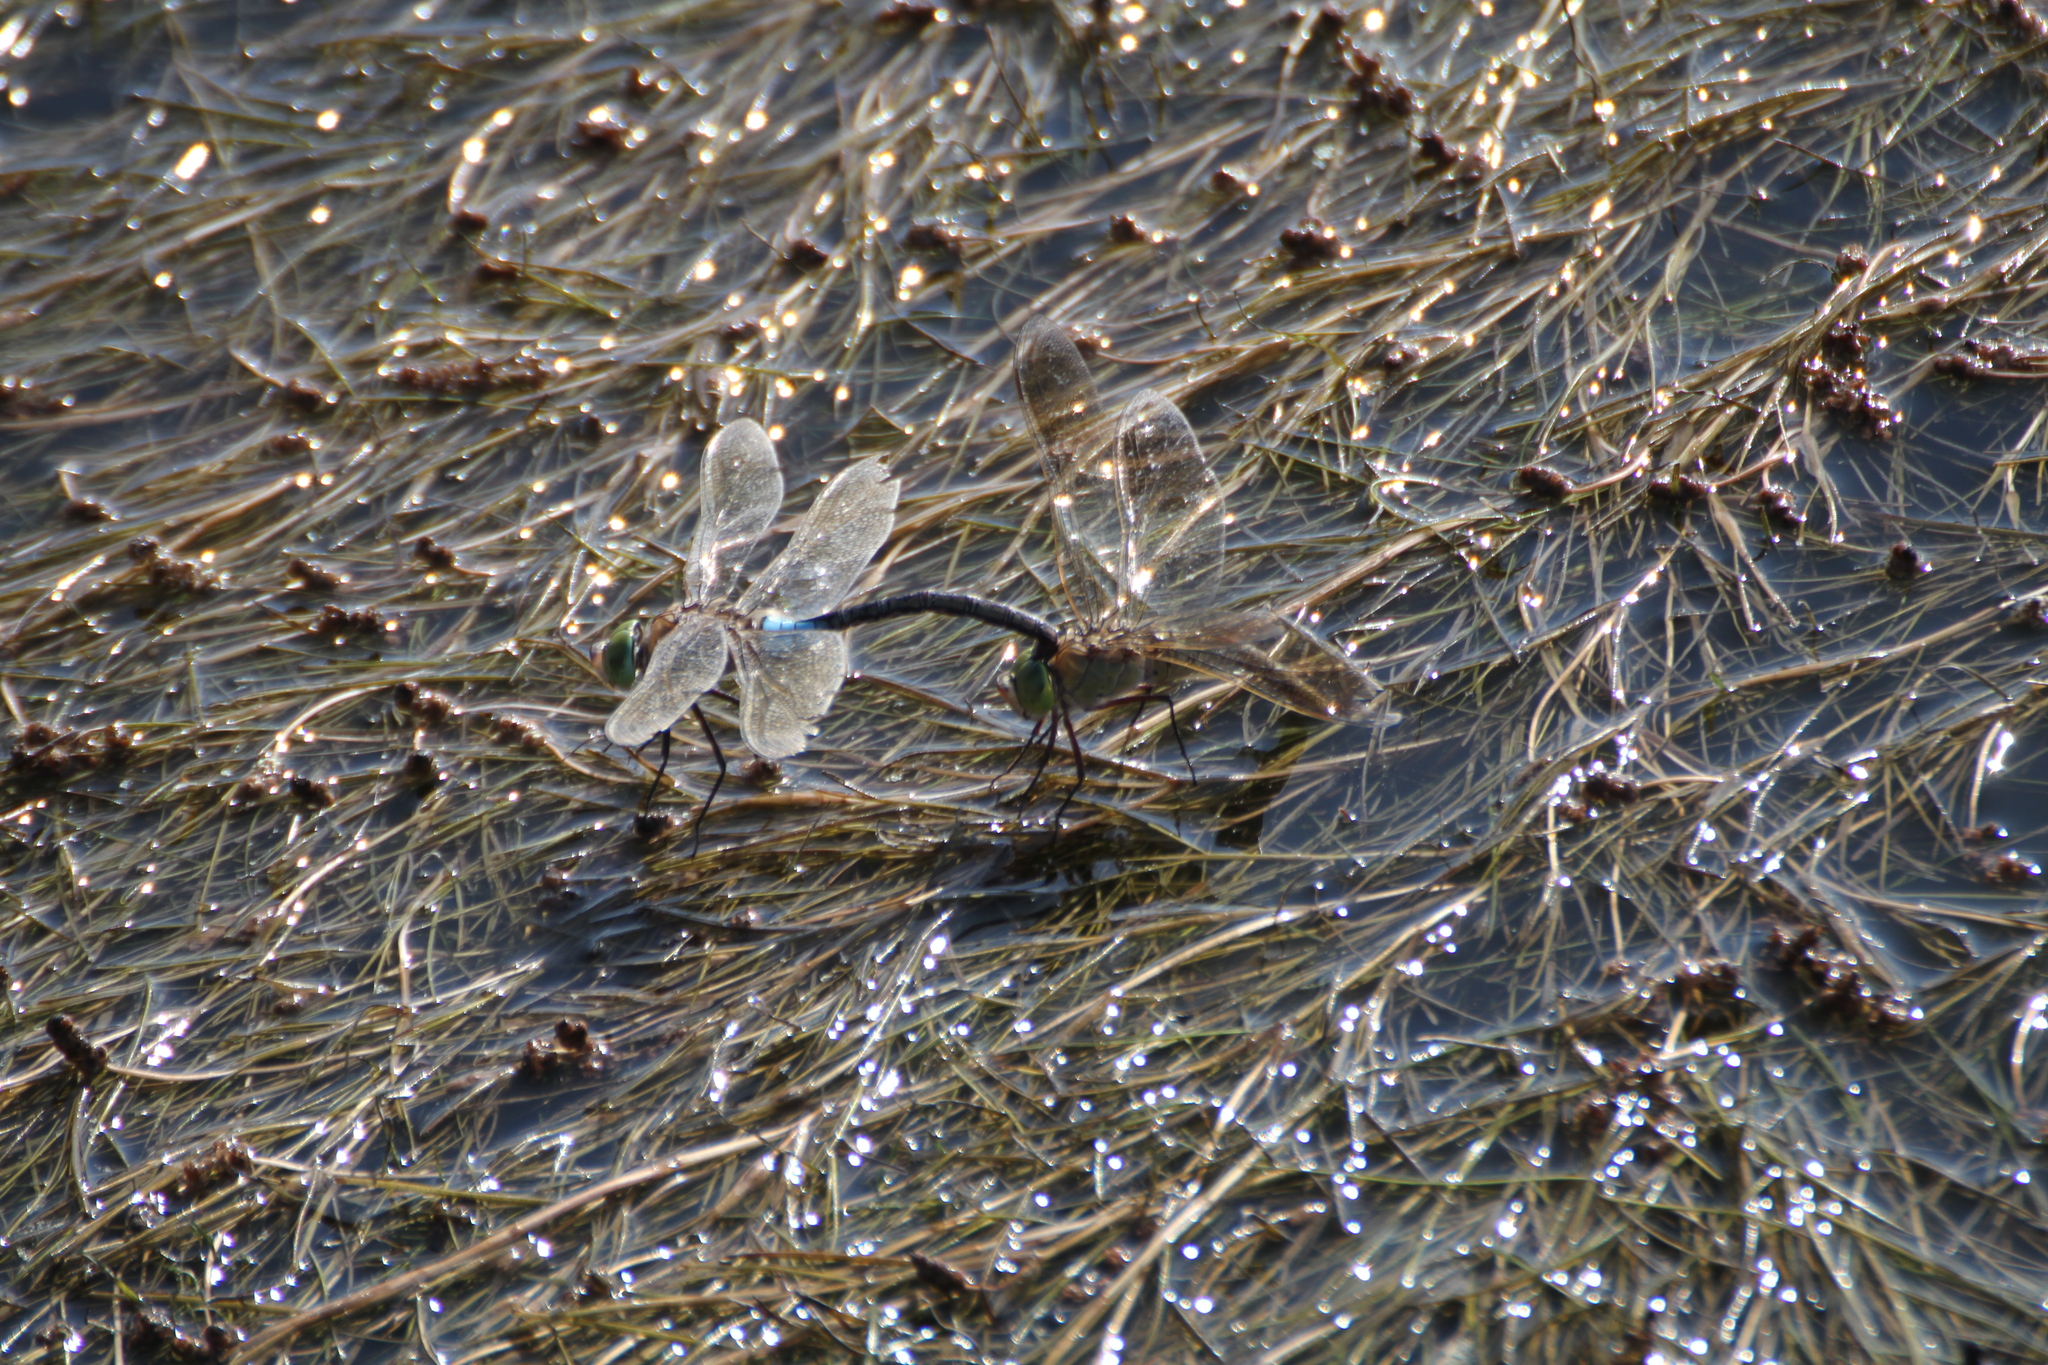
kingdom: Animalia
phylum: Arthropoda
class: Insecta
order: Odonata
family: Aeshnidae
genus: Anax
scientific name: Anax parthenope
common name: Lesser emperor
